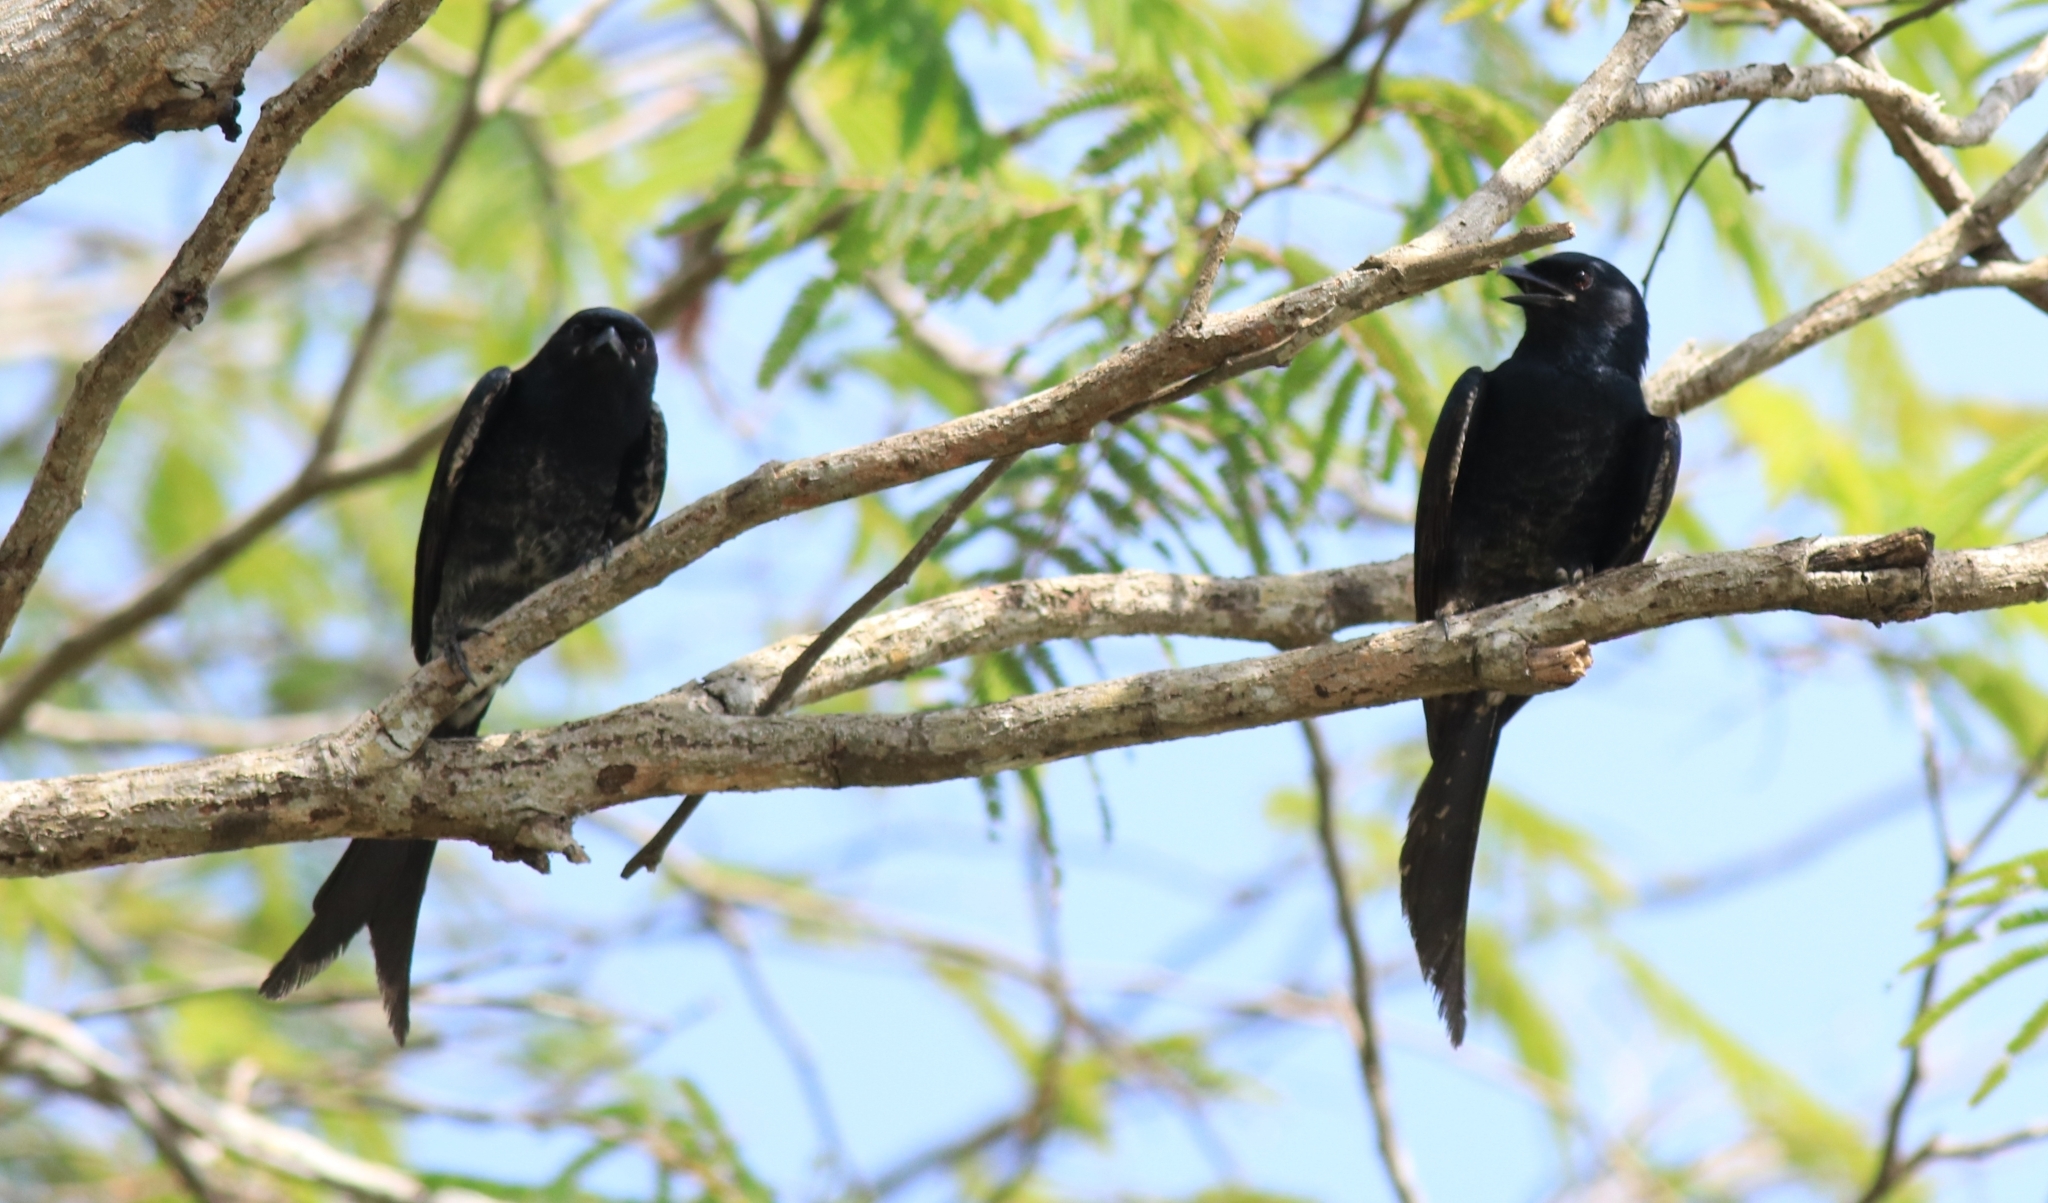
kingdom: Animalia
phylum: Chordata
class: Aves
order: Passeriformes
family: Dicruridae
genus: Dicrurus
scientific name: Dicrurus macrocercus
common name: Black drongo
